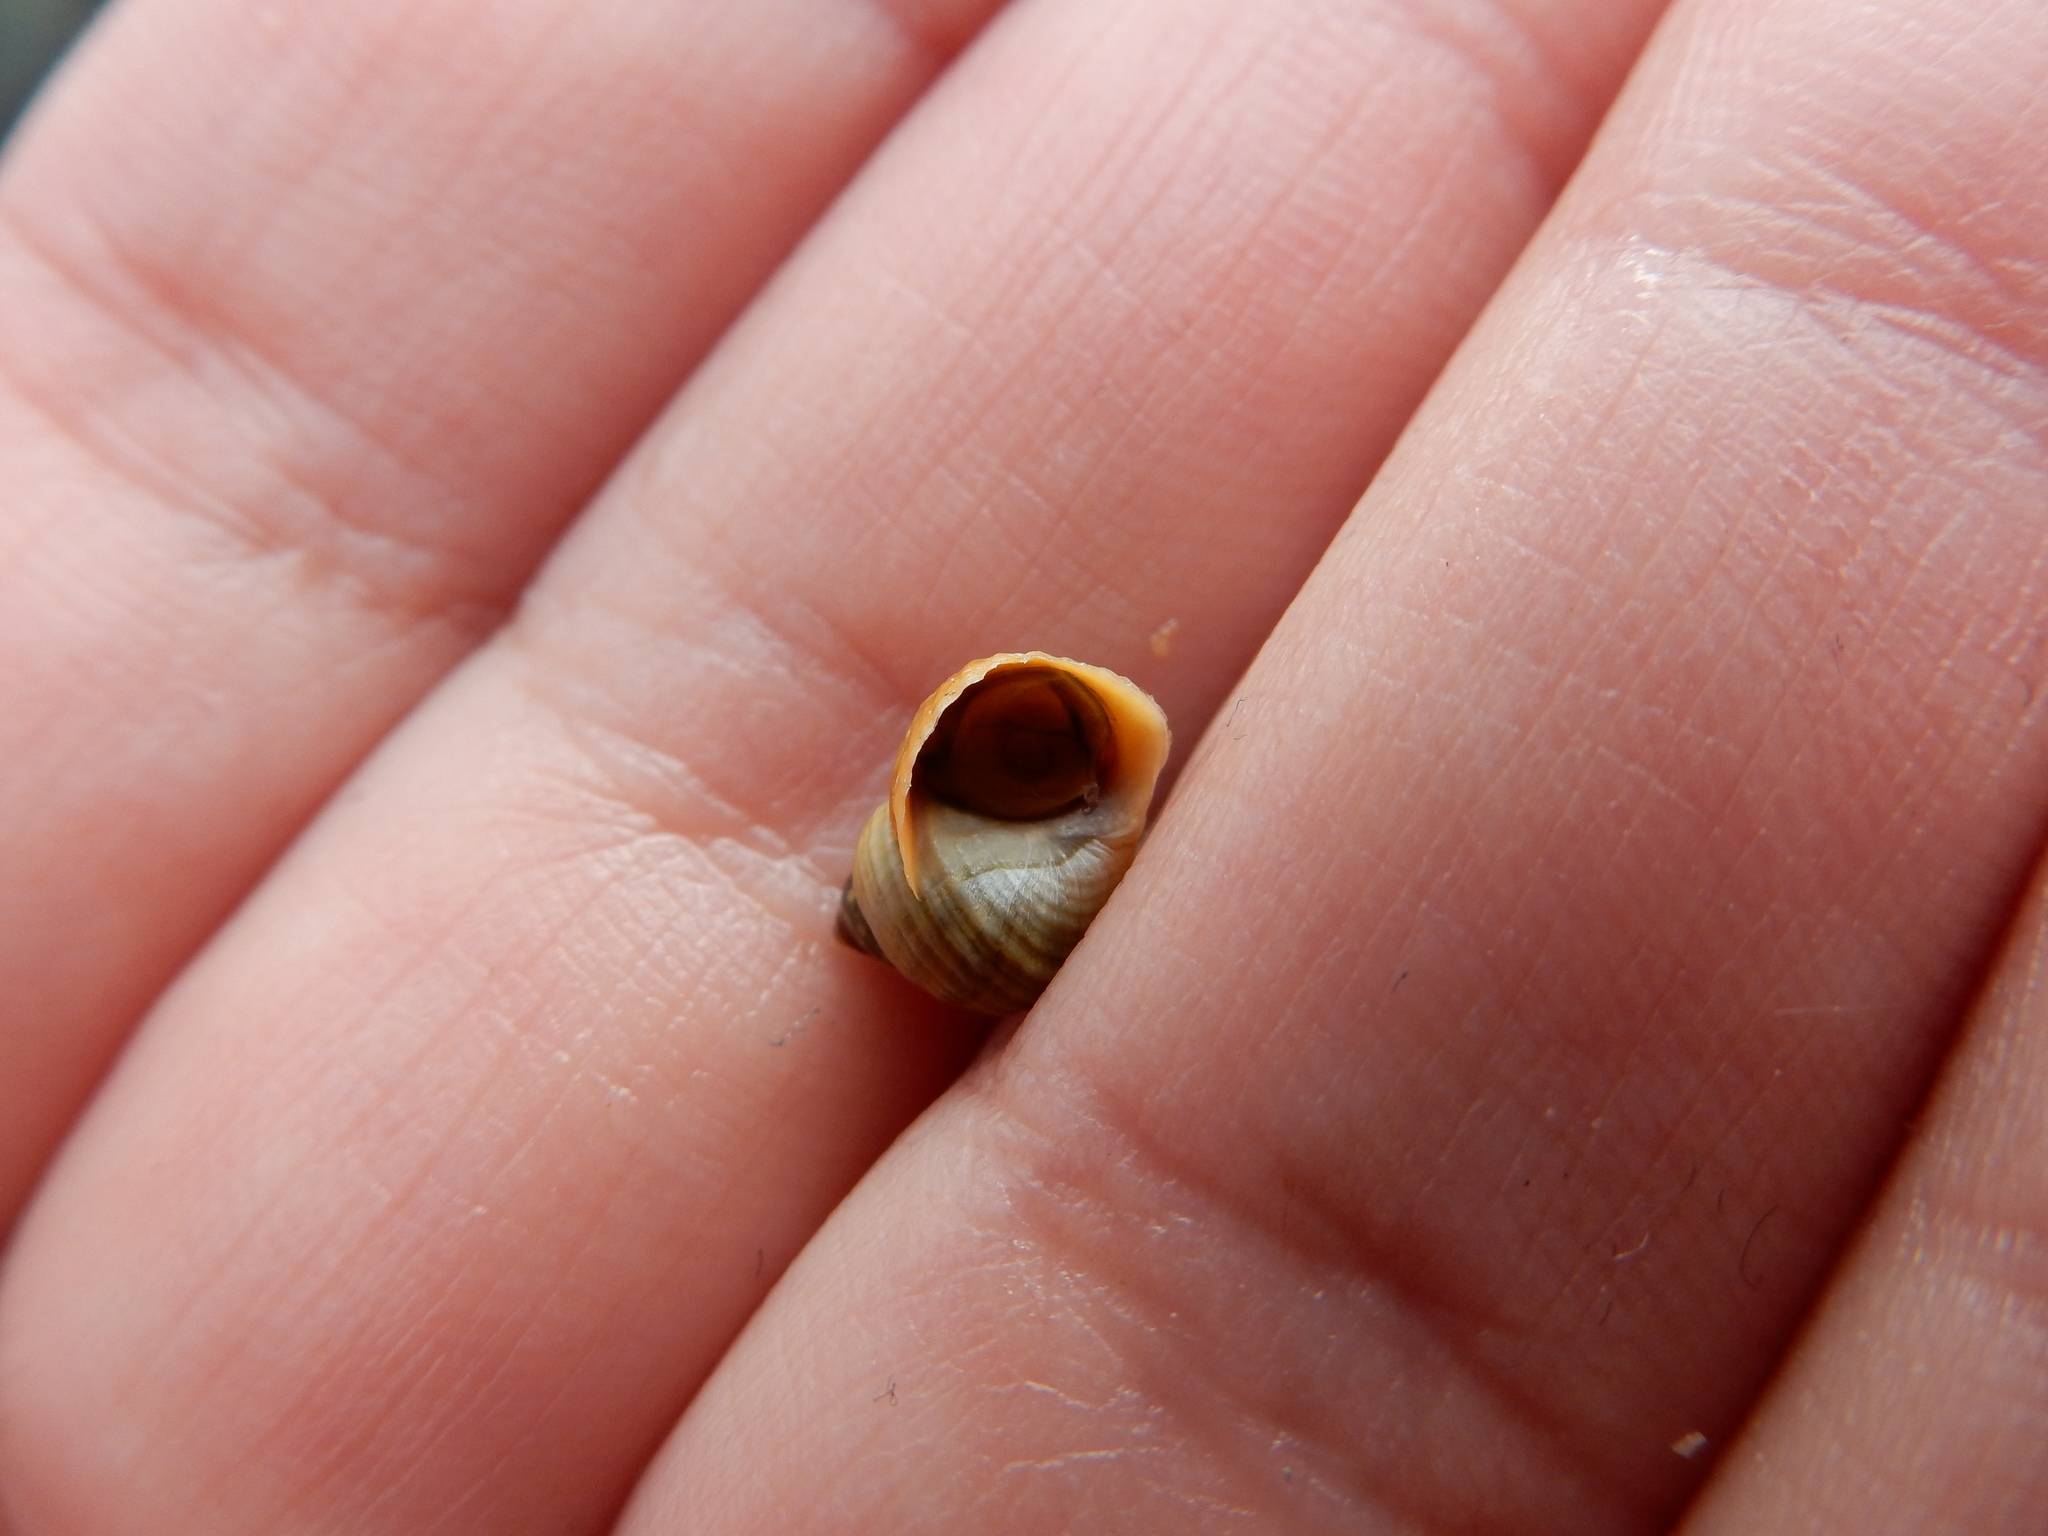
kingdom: Animalia
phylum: Mollusca
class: Gastropoda
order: Littorinimorpha
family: Littorinidae
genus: Littorina
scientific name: Littorina saxatilis
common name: Black-lined periwinkle
